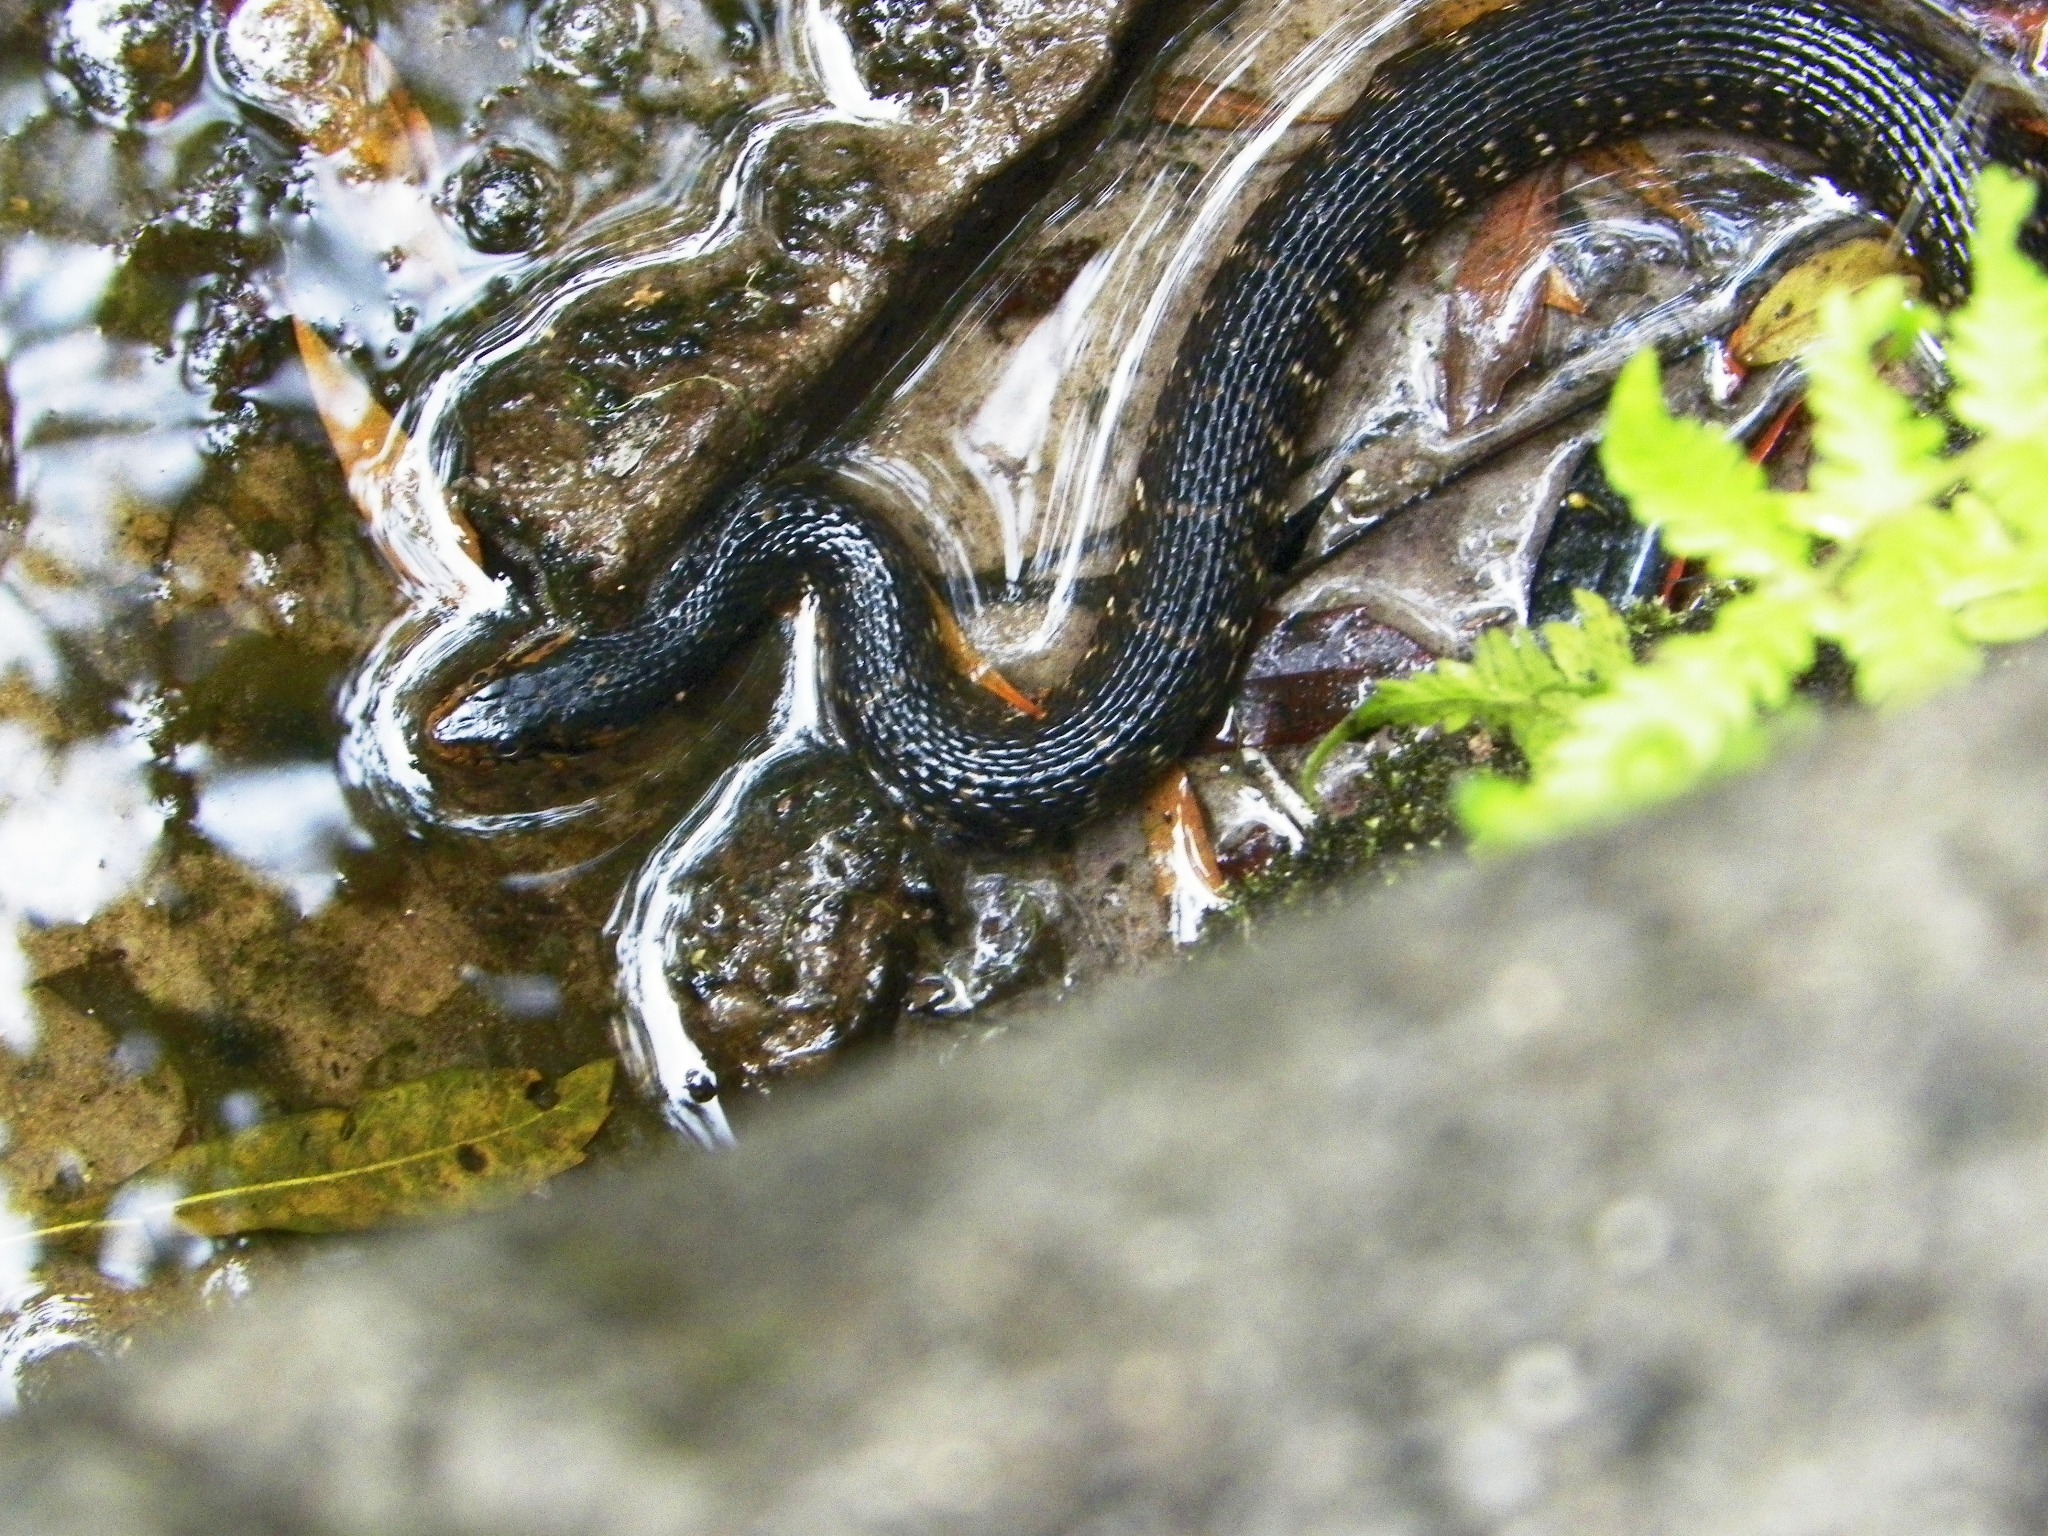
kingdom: Animalia
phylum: Chordata
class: Squamata
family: Colubridae
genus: Nerodia
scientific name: Nerodia fasciata
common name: Southern water snake
